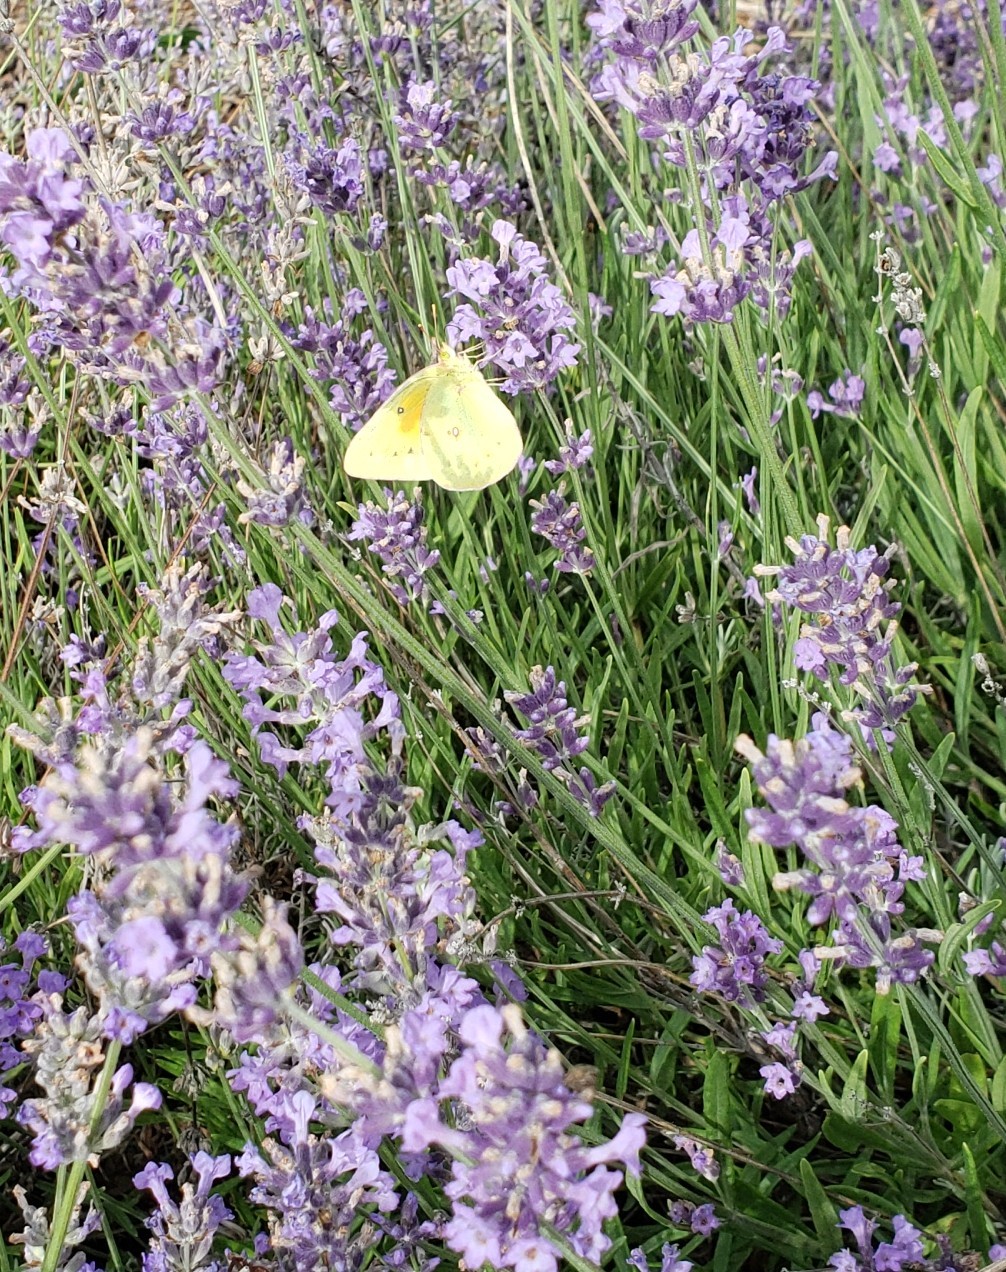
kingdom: Animalia
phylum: Arthropoda
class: Insecta
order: Lepidoptera
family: Pieridae
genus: Colias
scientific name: Colias eurytheme
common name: Alfalfa butterfly
